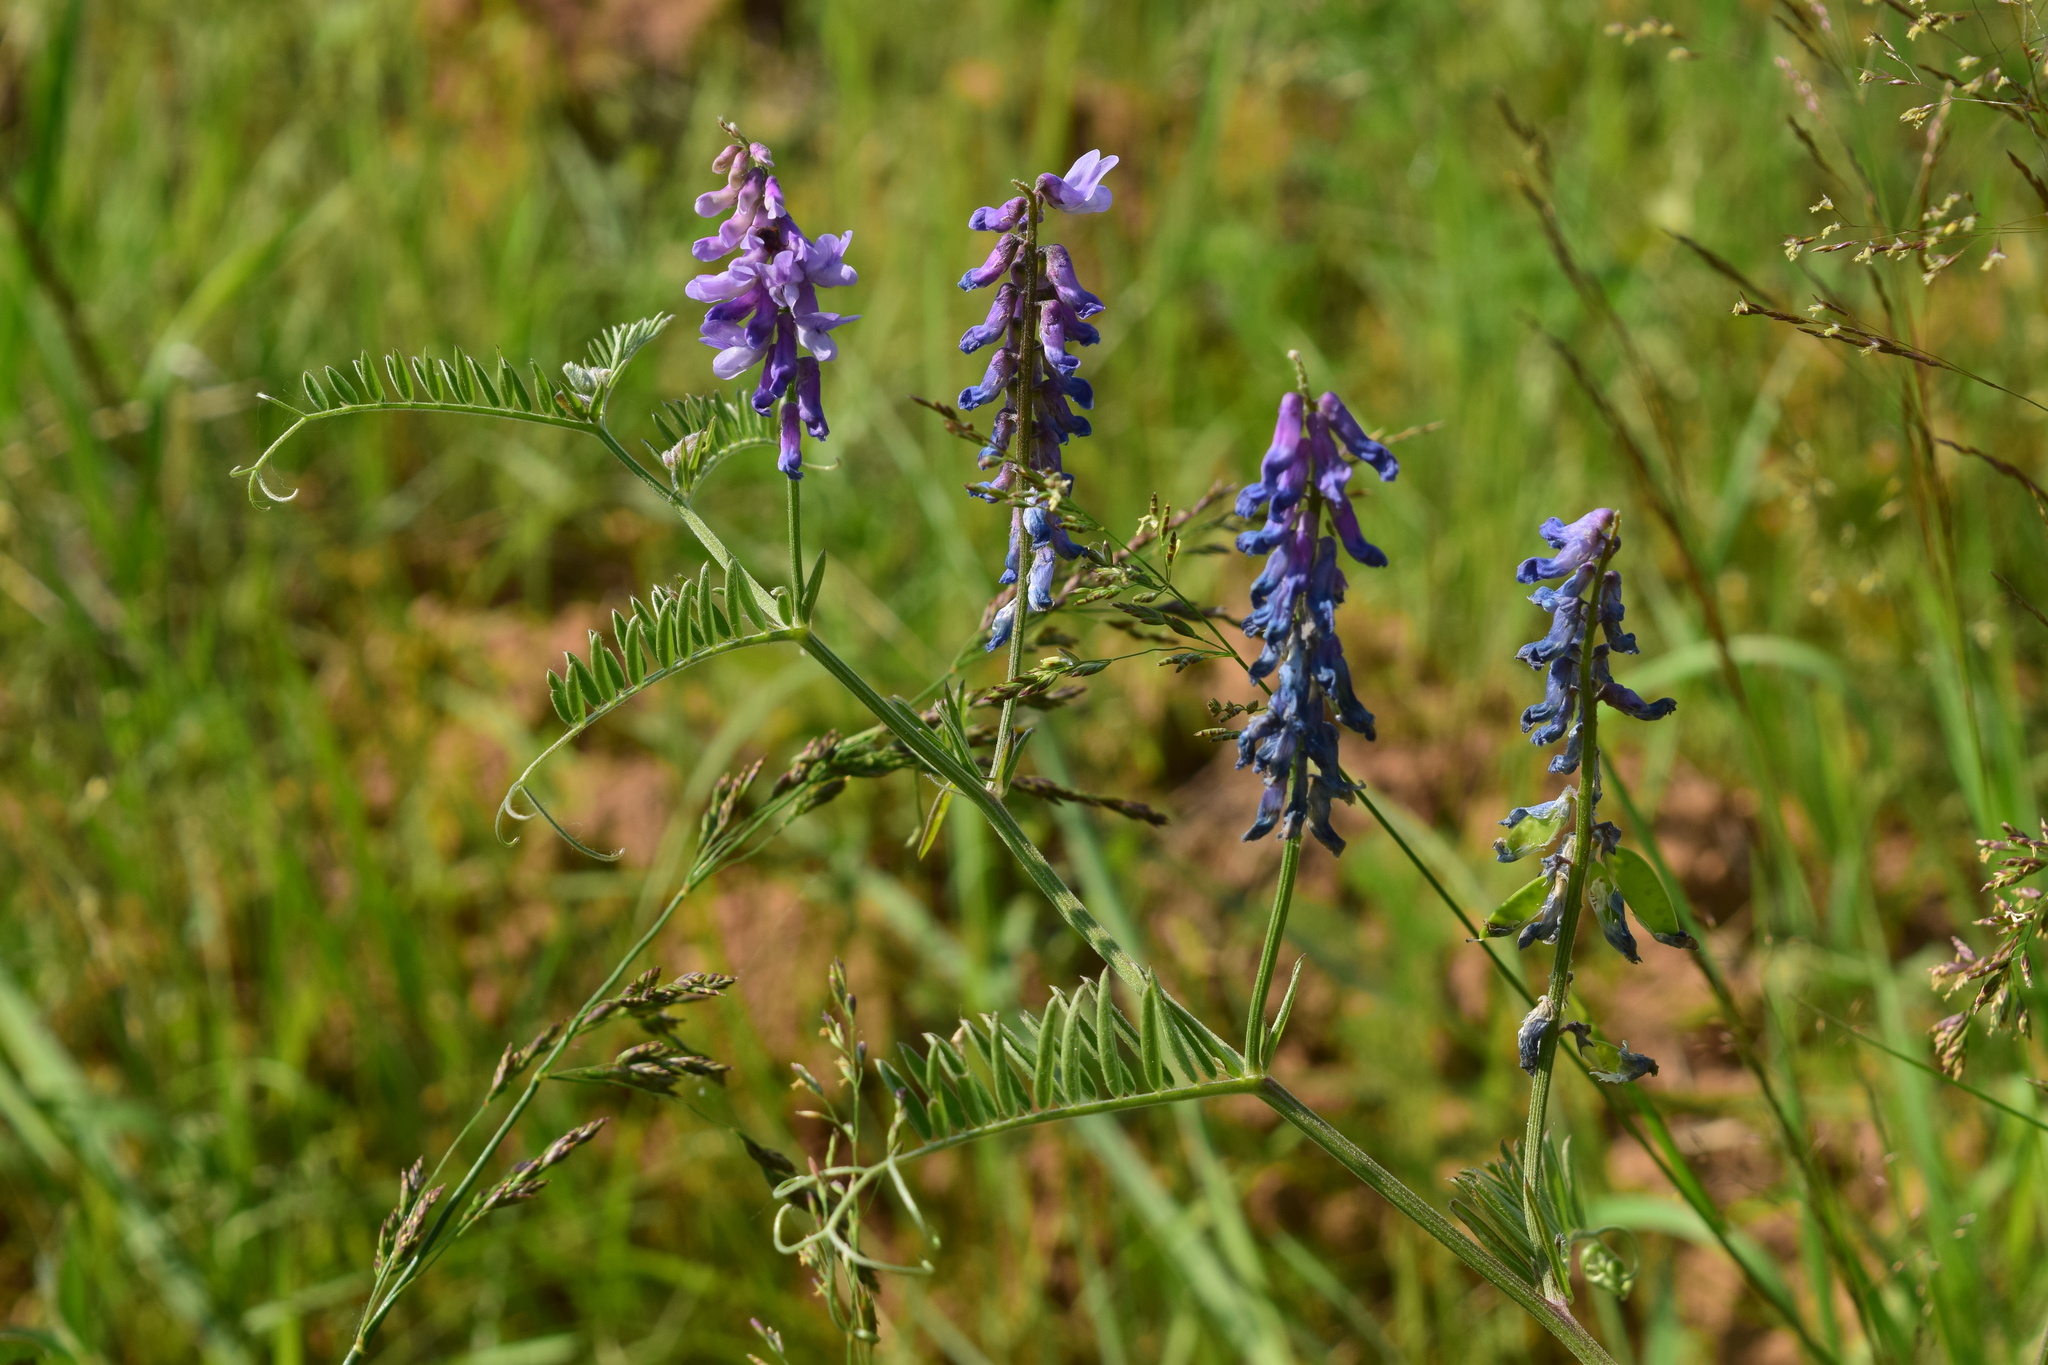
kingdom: Plantae
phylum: Tracheophyta
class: Magnoliopsida
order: Fabales
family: Fabaceae
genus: Vicia
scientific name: Vicia cracca
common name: Bird vetch
